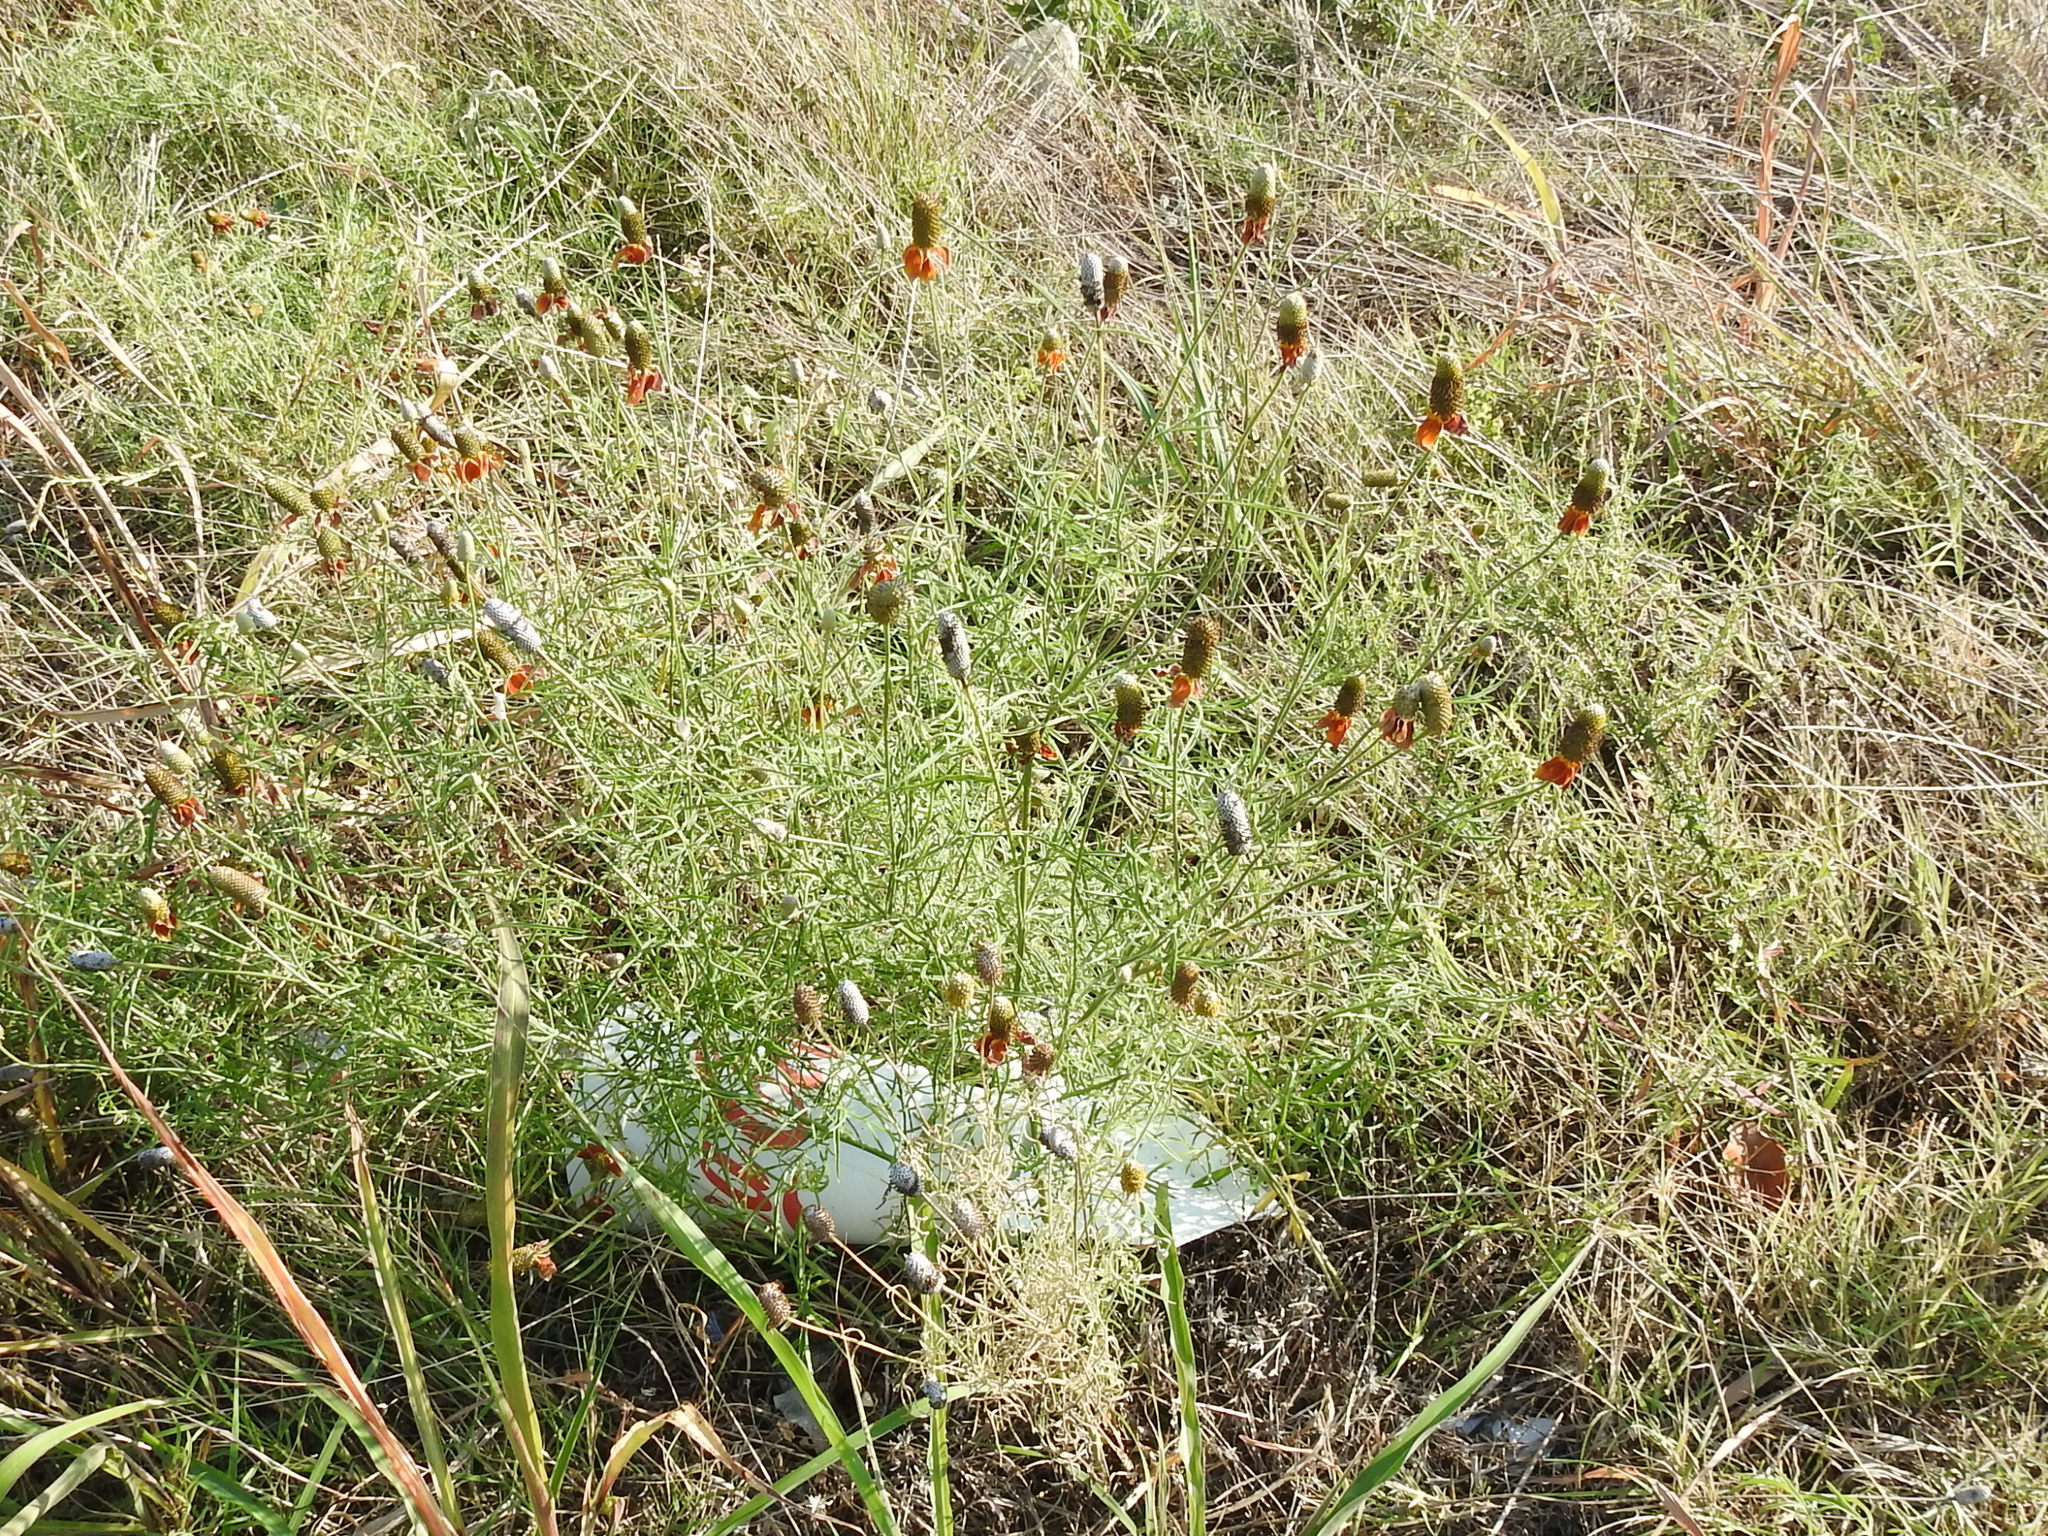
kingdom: Plantae
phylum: Tracheophyta
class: Magnoliopsida
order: Asterales
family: Asteraceae
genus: Ratibida
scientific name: Ratibida columnifera
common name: Prairie coneflower
